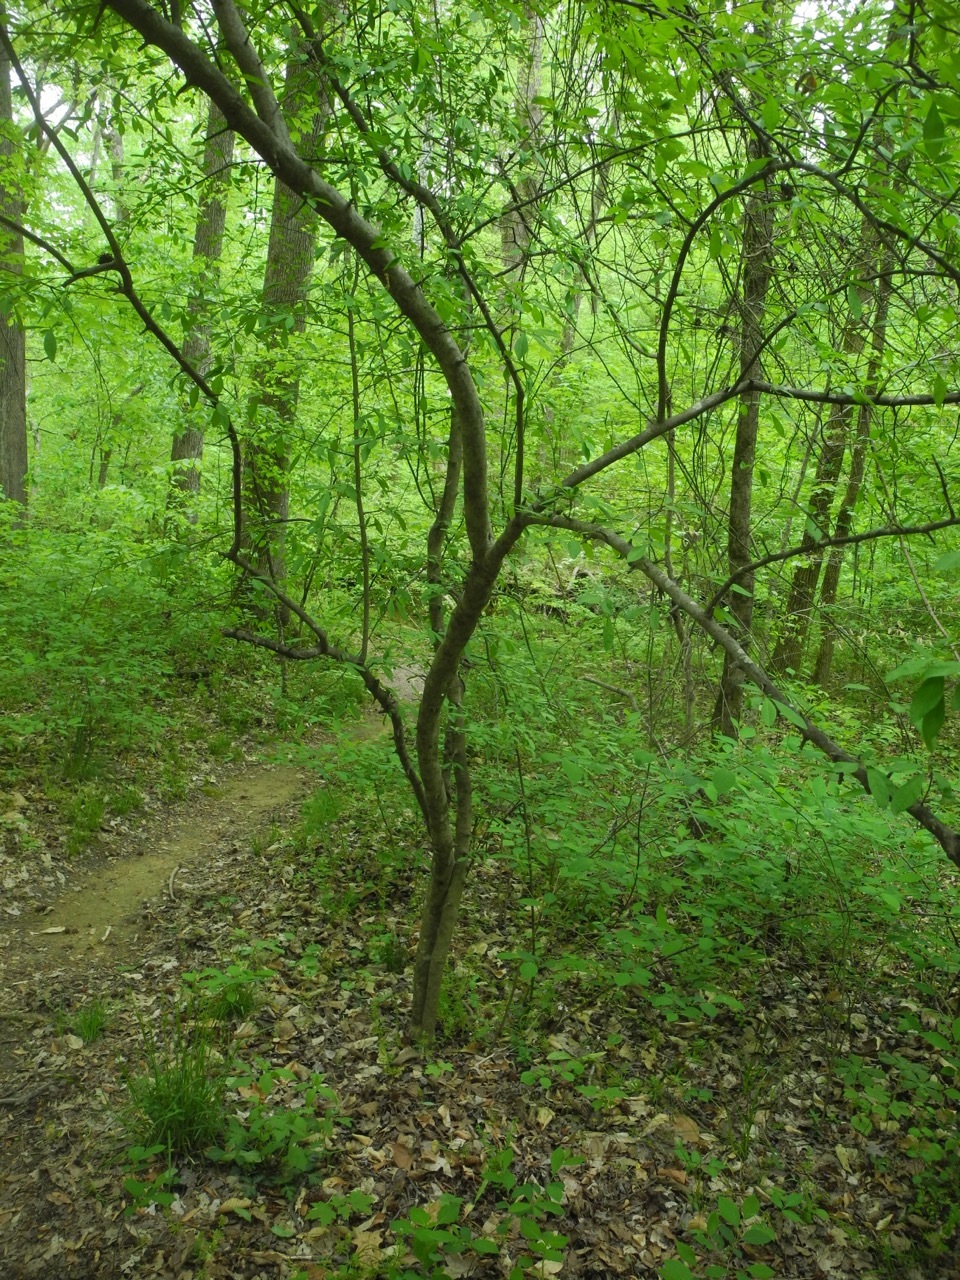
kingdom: Plantae
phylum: Tracheophyta
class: Magnoliopsida
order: Aquifoliales
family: Aquifoliaceae
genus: Ilex
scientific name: Ilex verticillata
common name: Virginia winterberry
